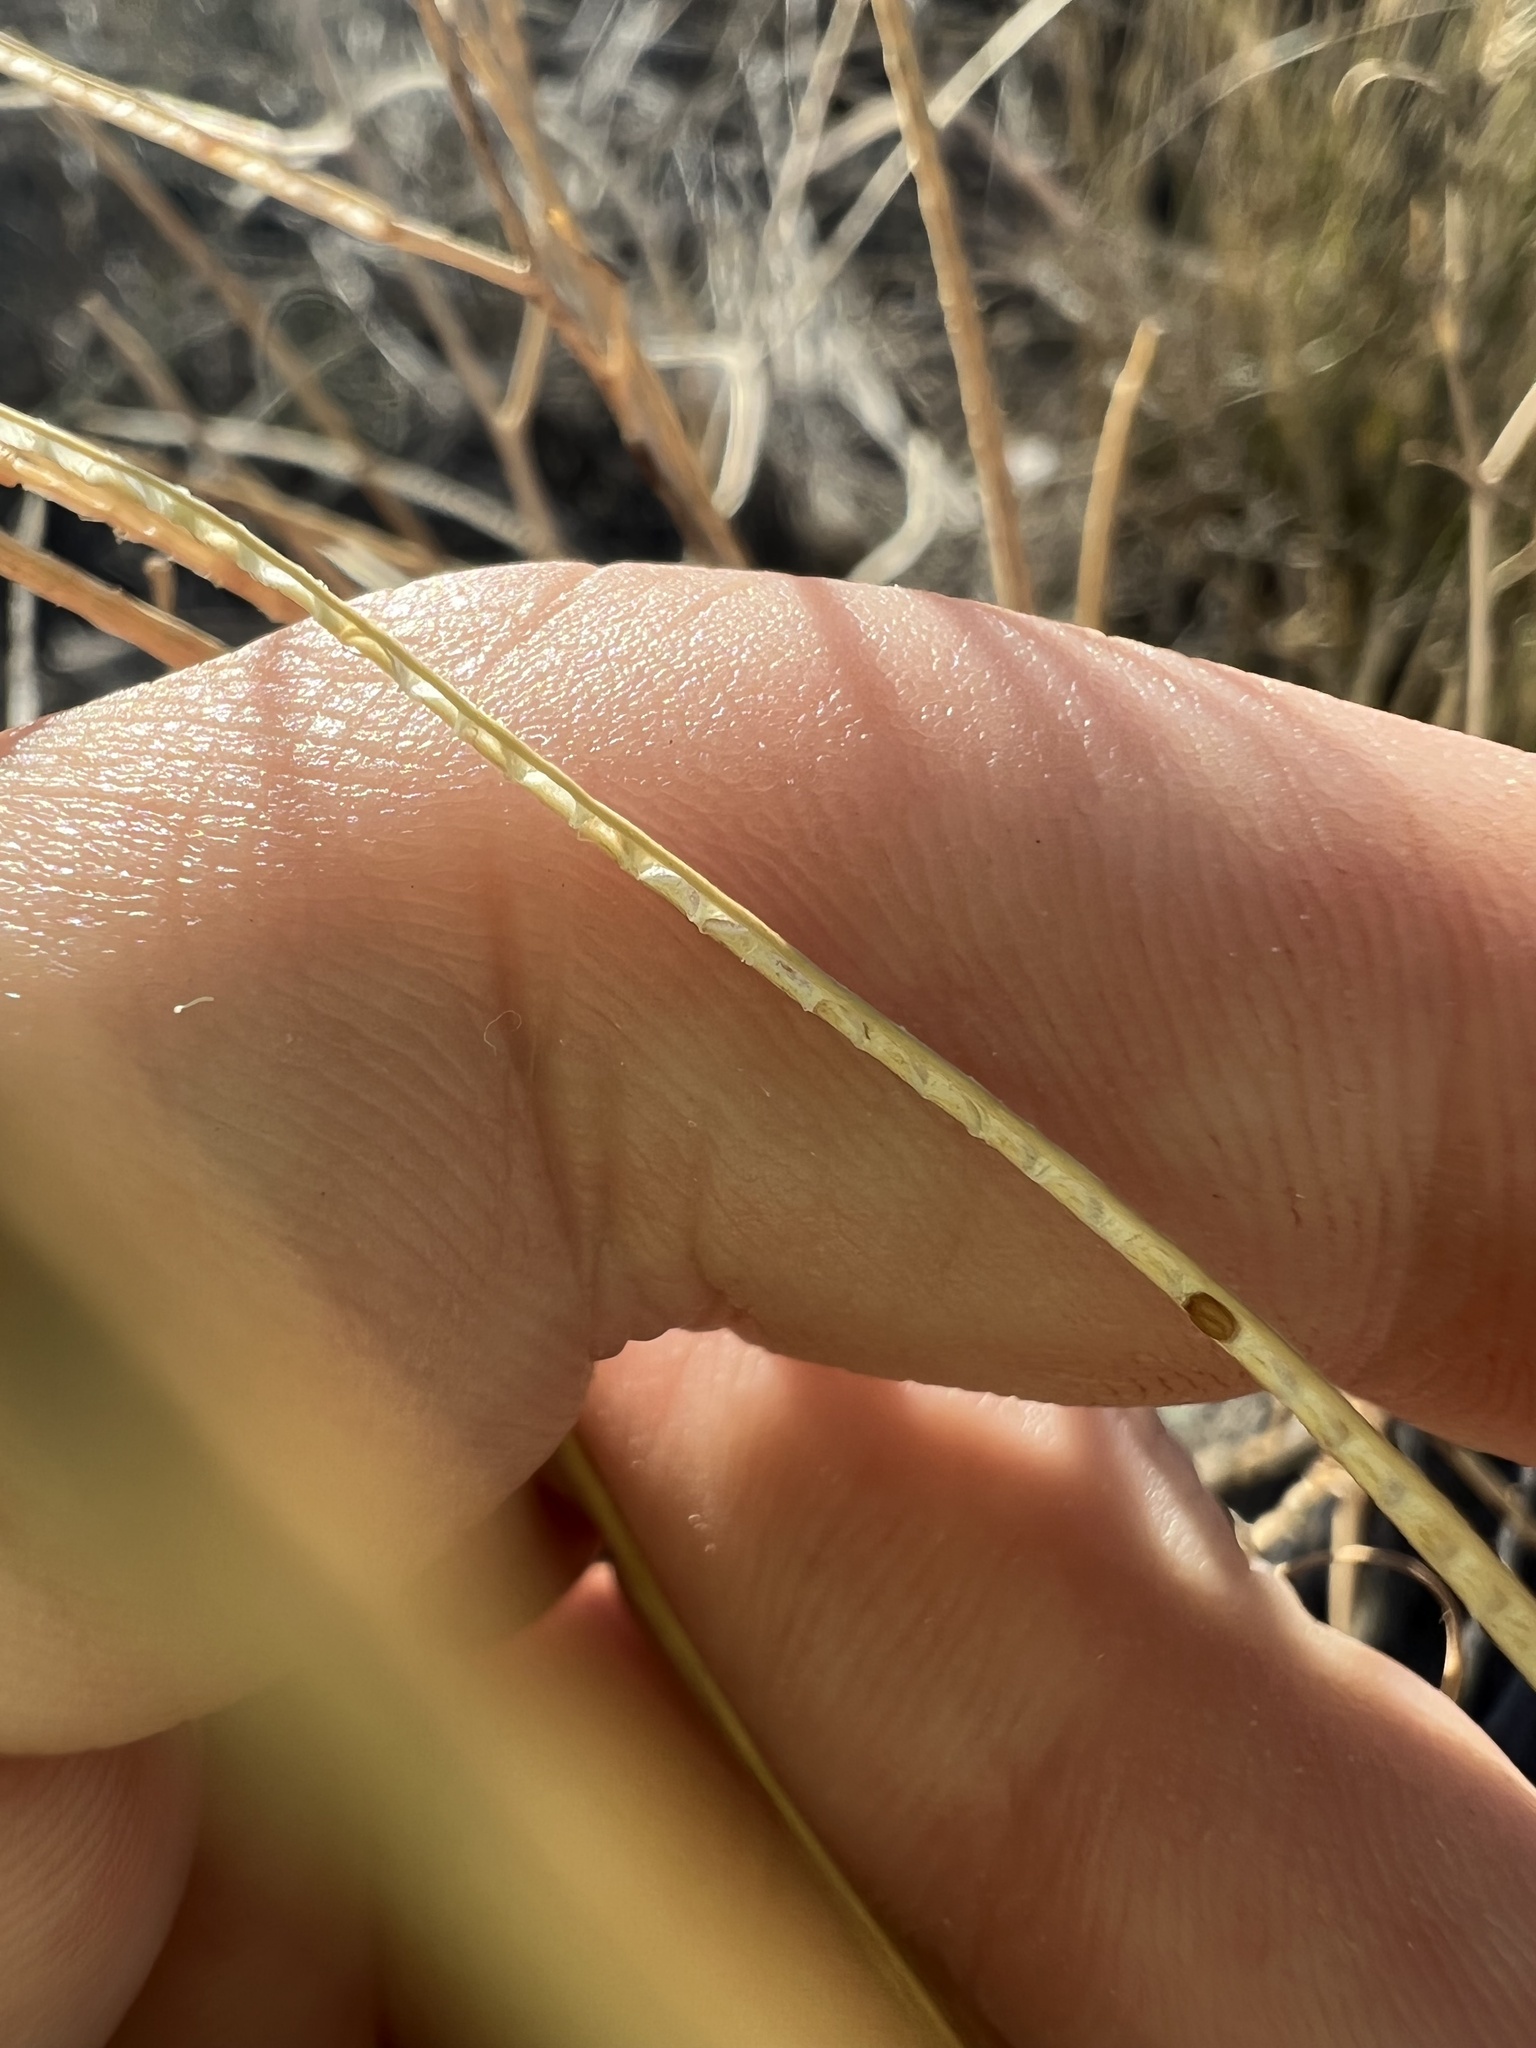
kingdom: Plantae
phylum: Tracheophyta
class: Magnoliopsida
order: Brassicales
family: Brassicaceae
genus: Sisymbrium
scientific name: Sisymbrium altissimum
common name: Tall rocket
